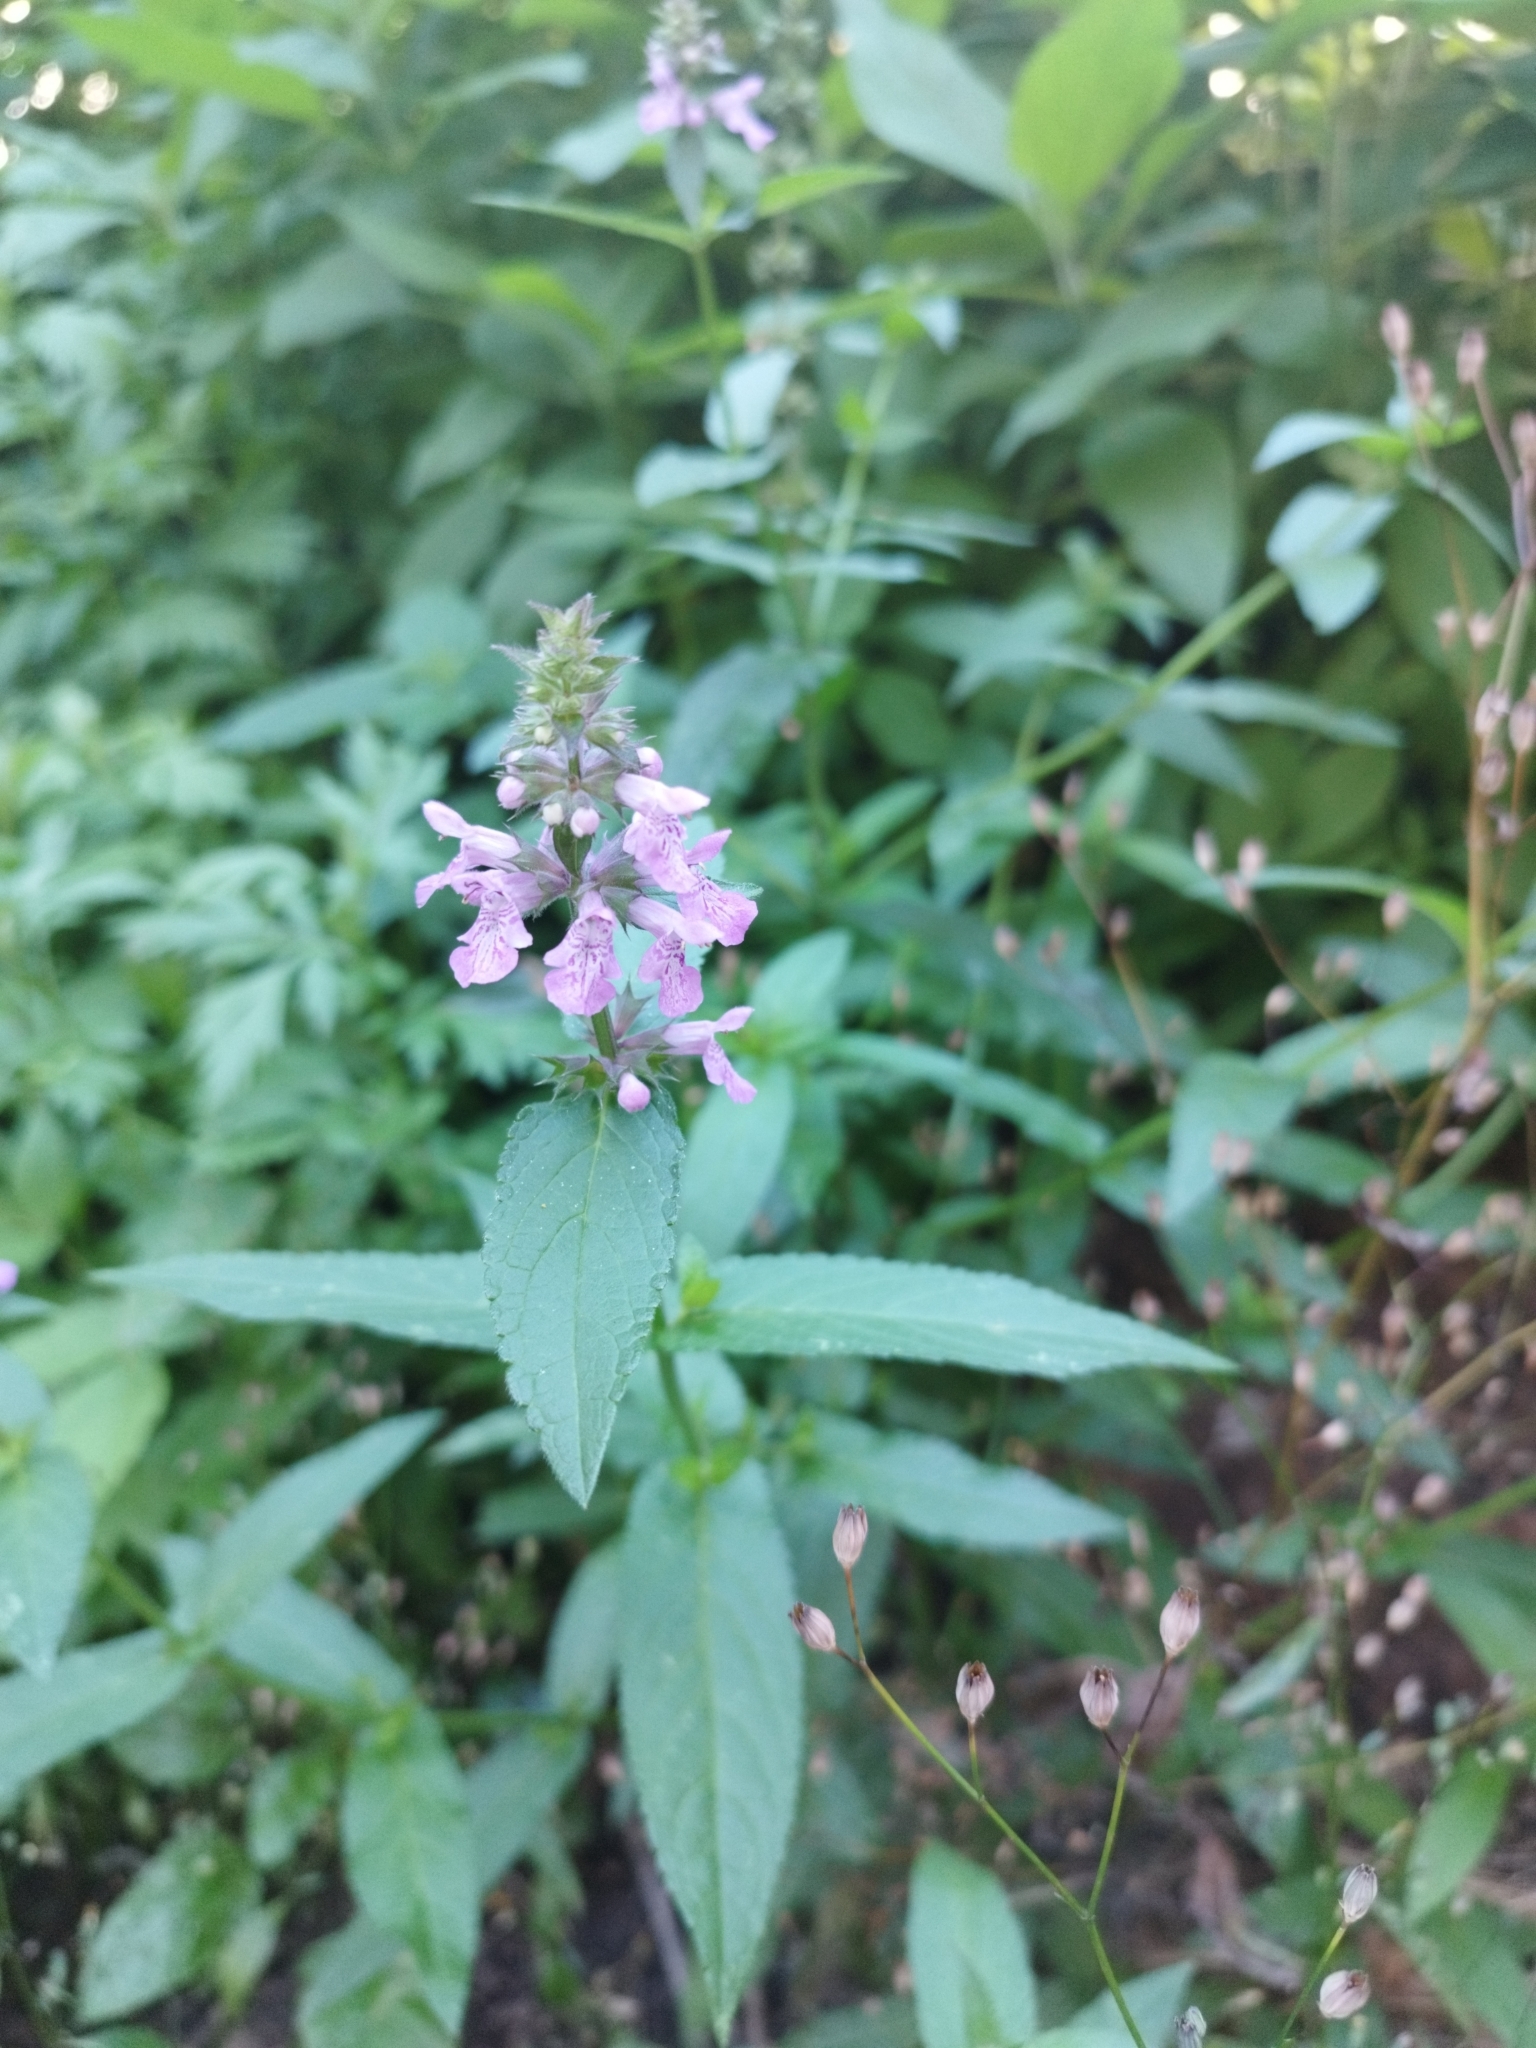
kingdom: Plantae
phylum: Tracheophyta
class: Magnoliopsida
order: Lamiales
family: Lamiaceae
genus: Stachys
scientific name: Stachys palustris
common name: Marsh woundwort
